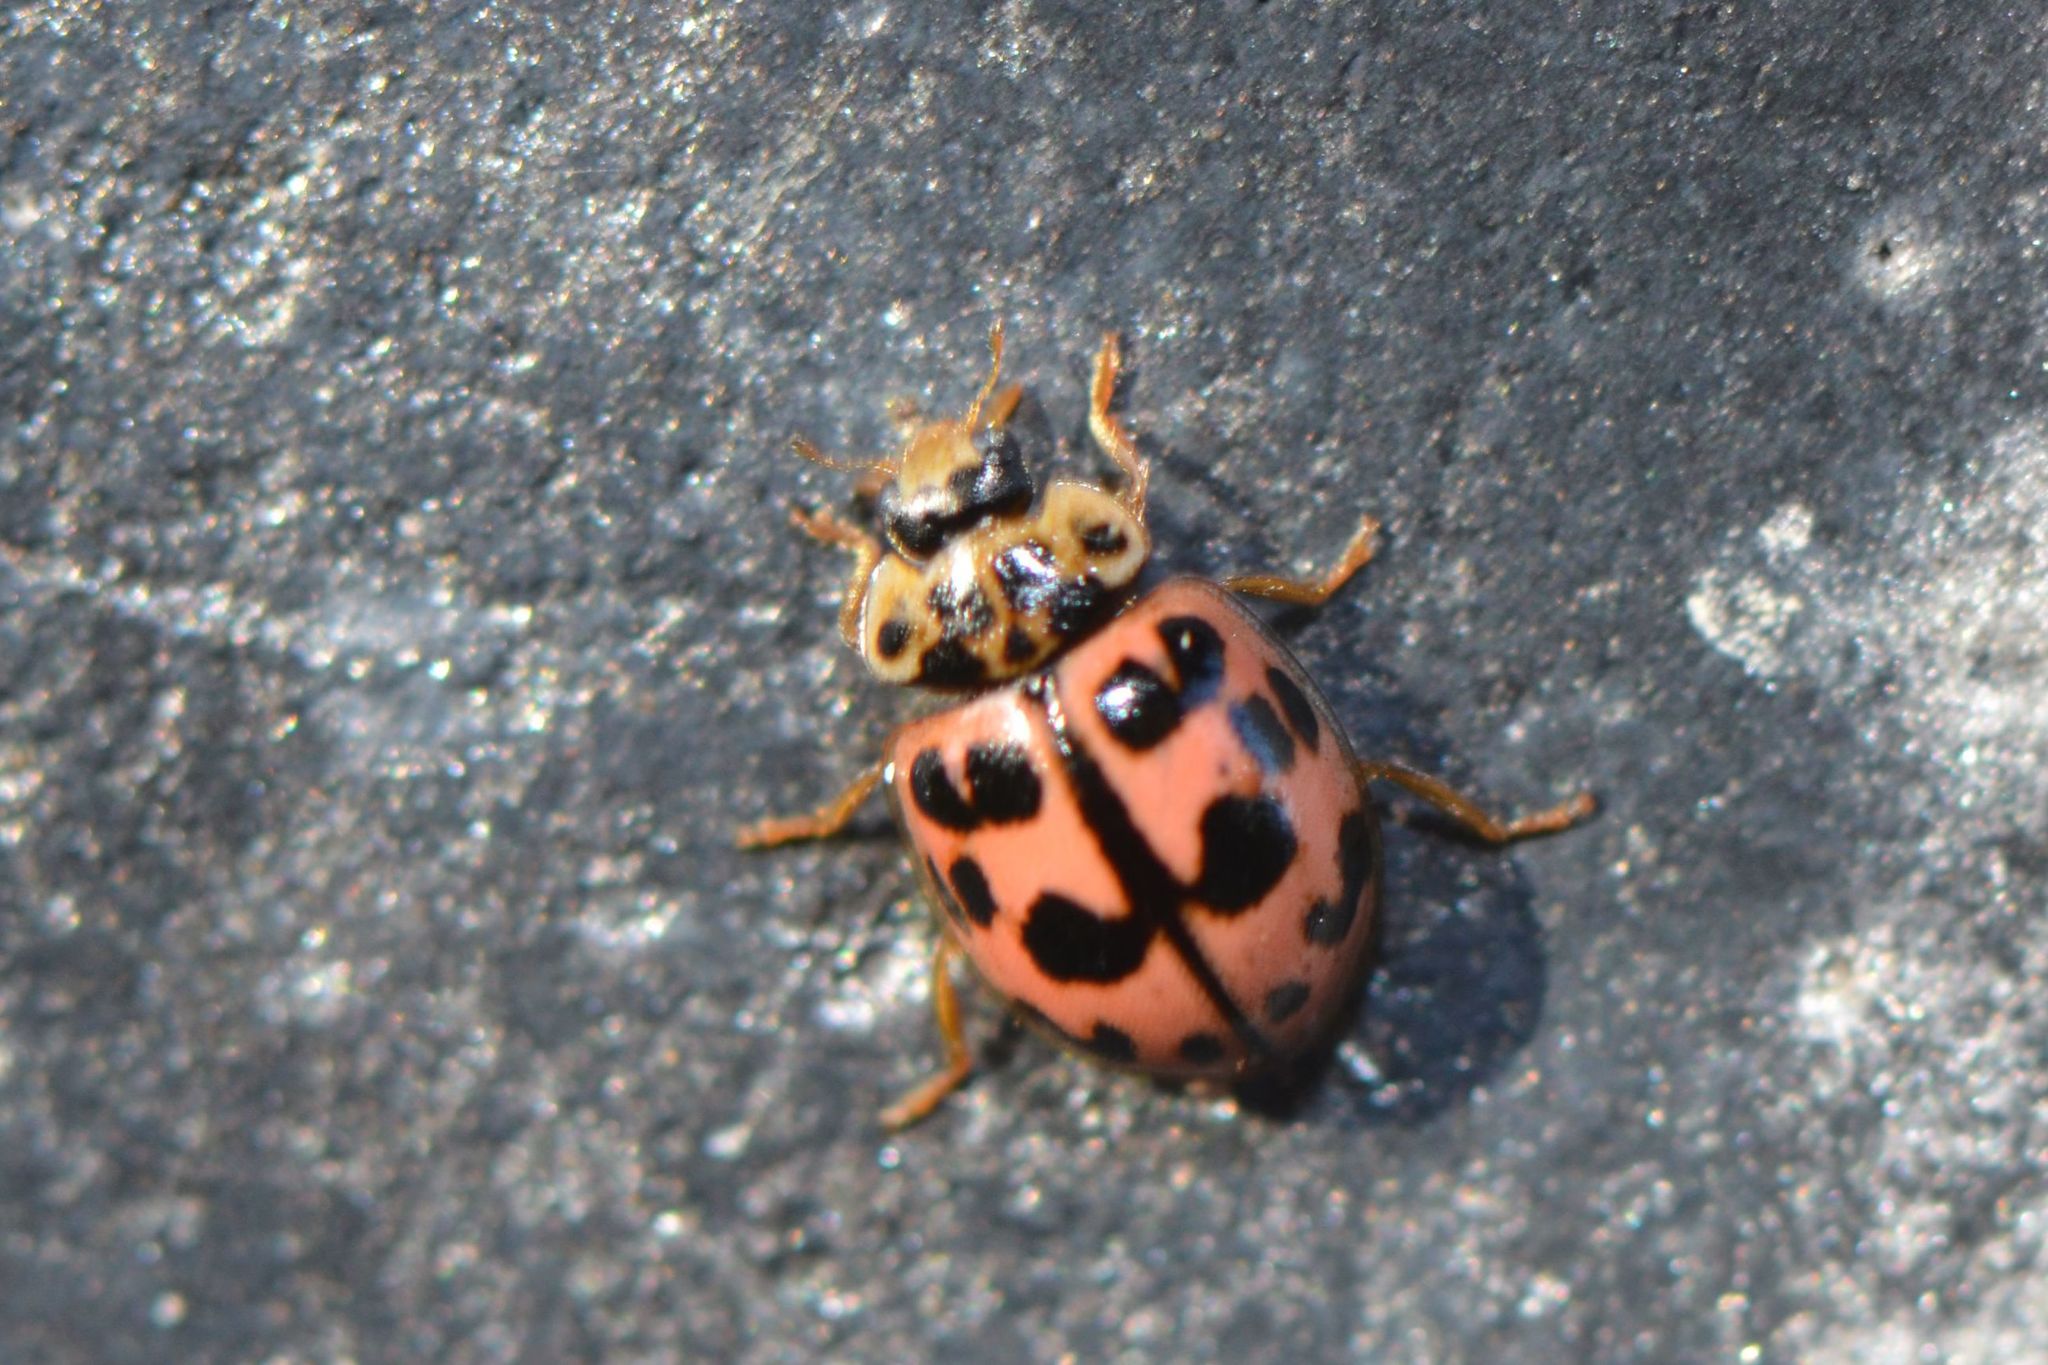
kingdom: Animalia
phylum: Arthropoda
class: Insecta
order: Coleoptera
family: Coccinellidae
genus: Oenopia
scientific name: Oenopia conglobata
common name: Ladybird beetle
